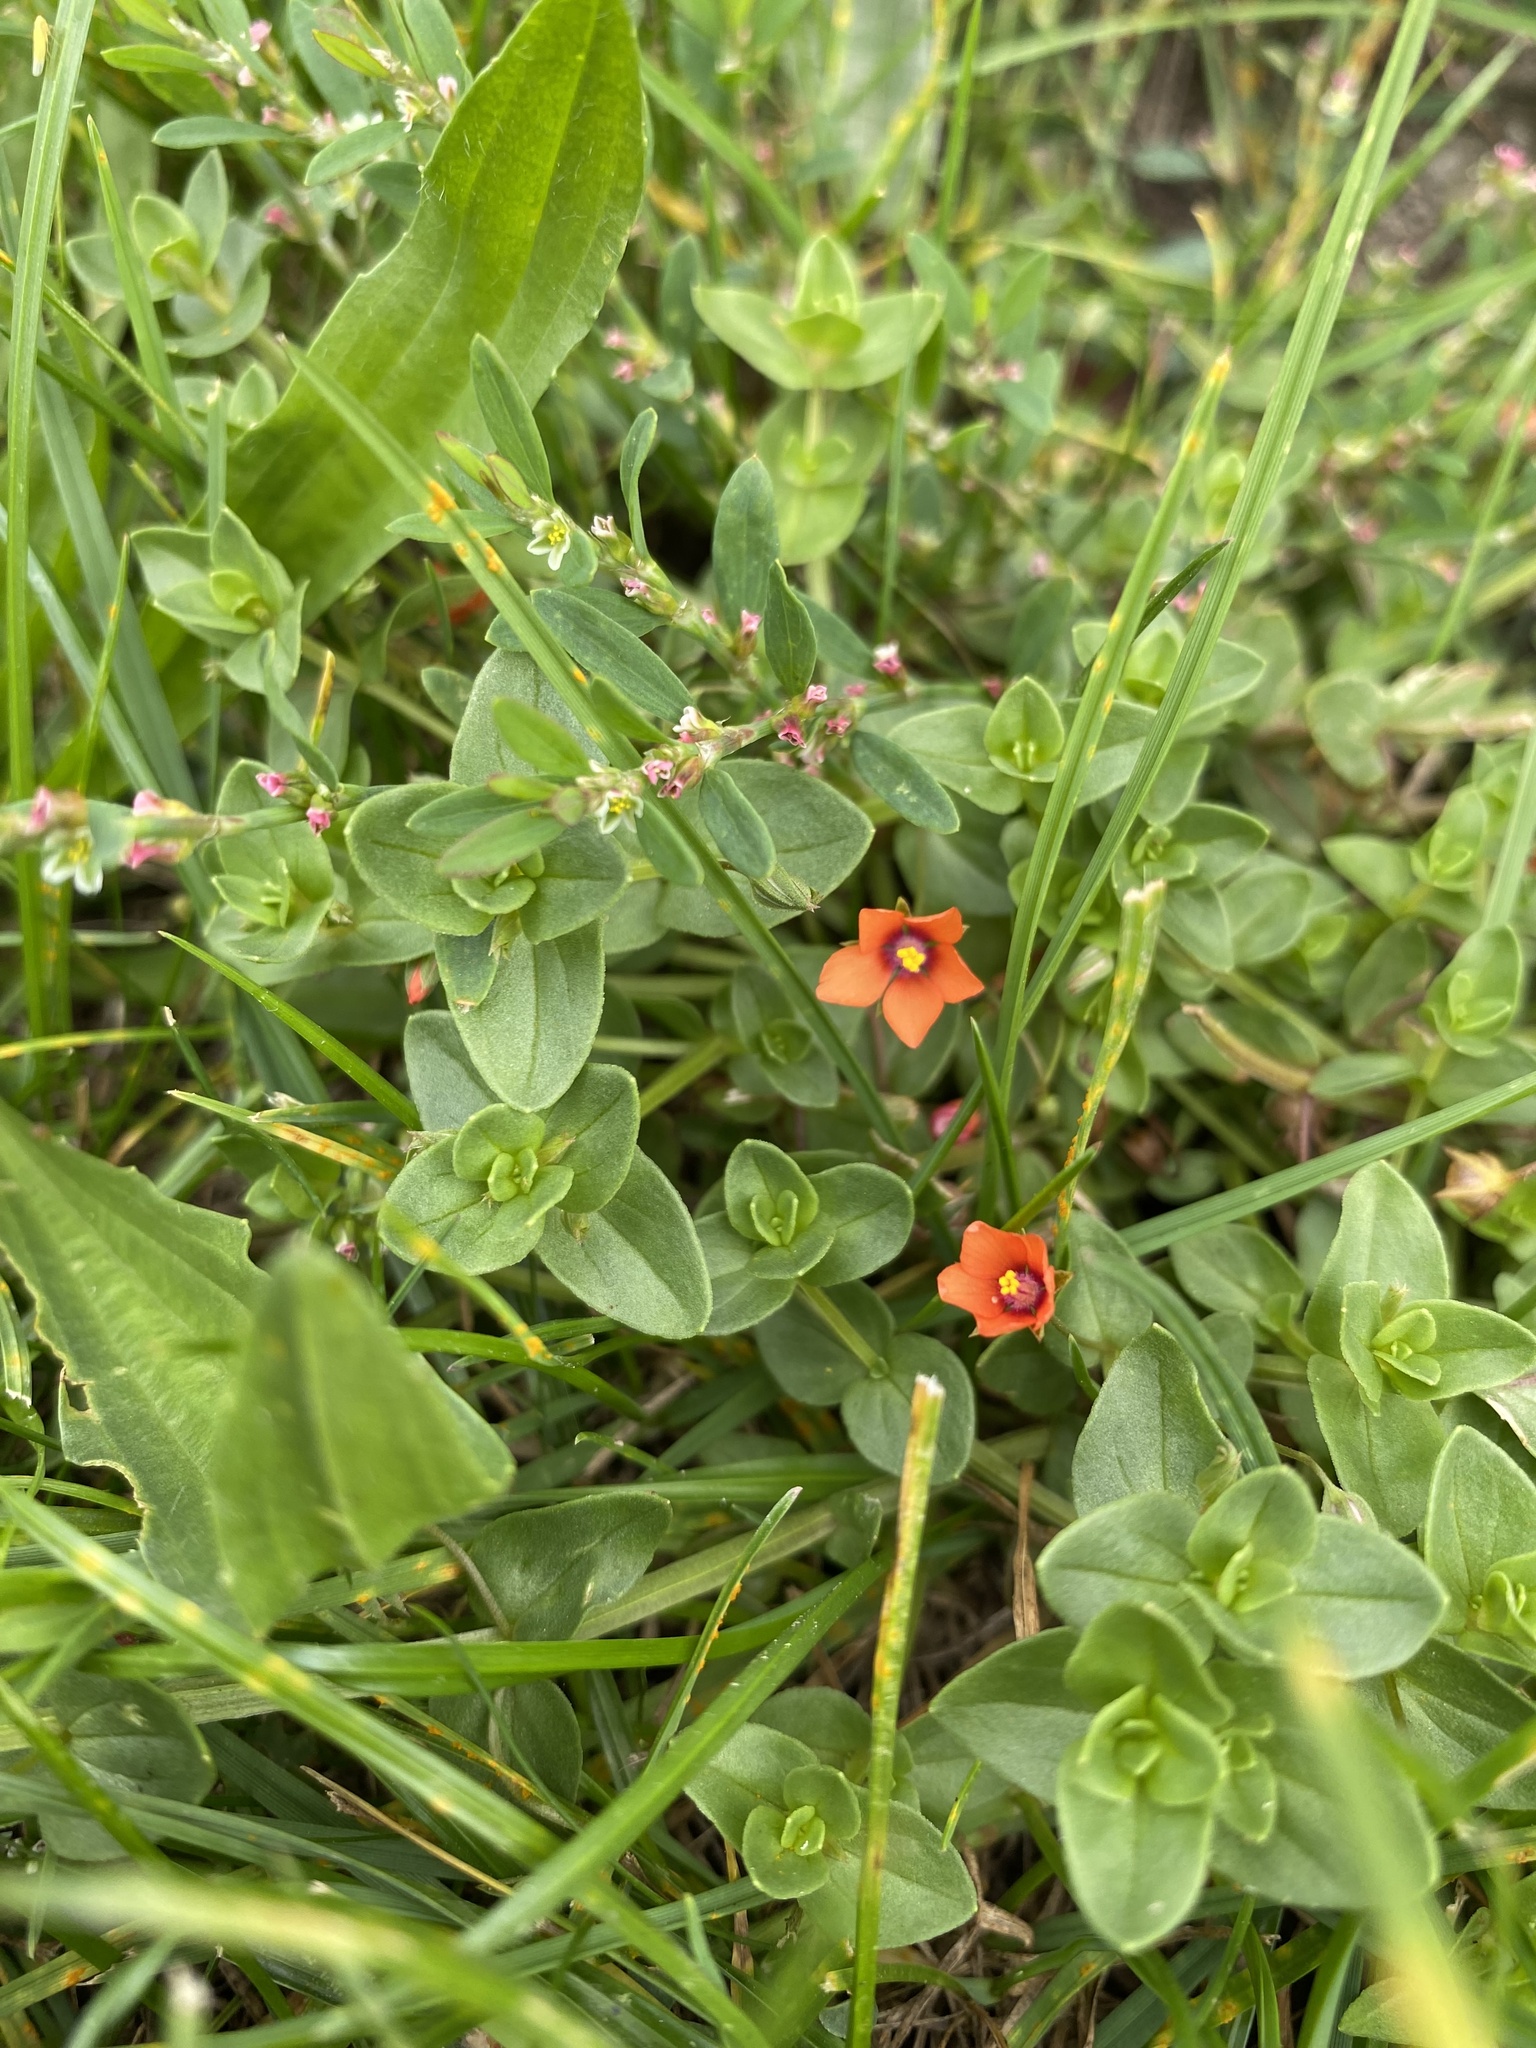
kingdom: Plantae
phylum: Tracheophyta
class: Magnoliopsida
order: Ericales
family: Primulaceae
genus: Lysimachia
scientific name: Lysimachia arvensis
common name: Scarlet pimpernel
